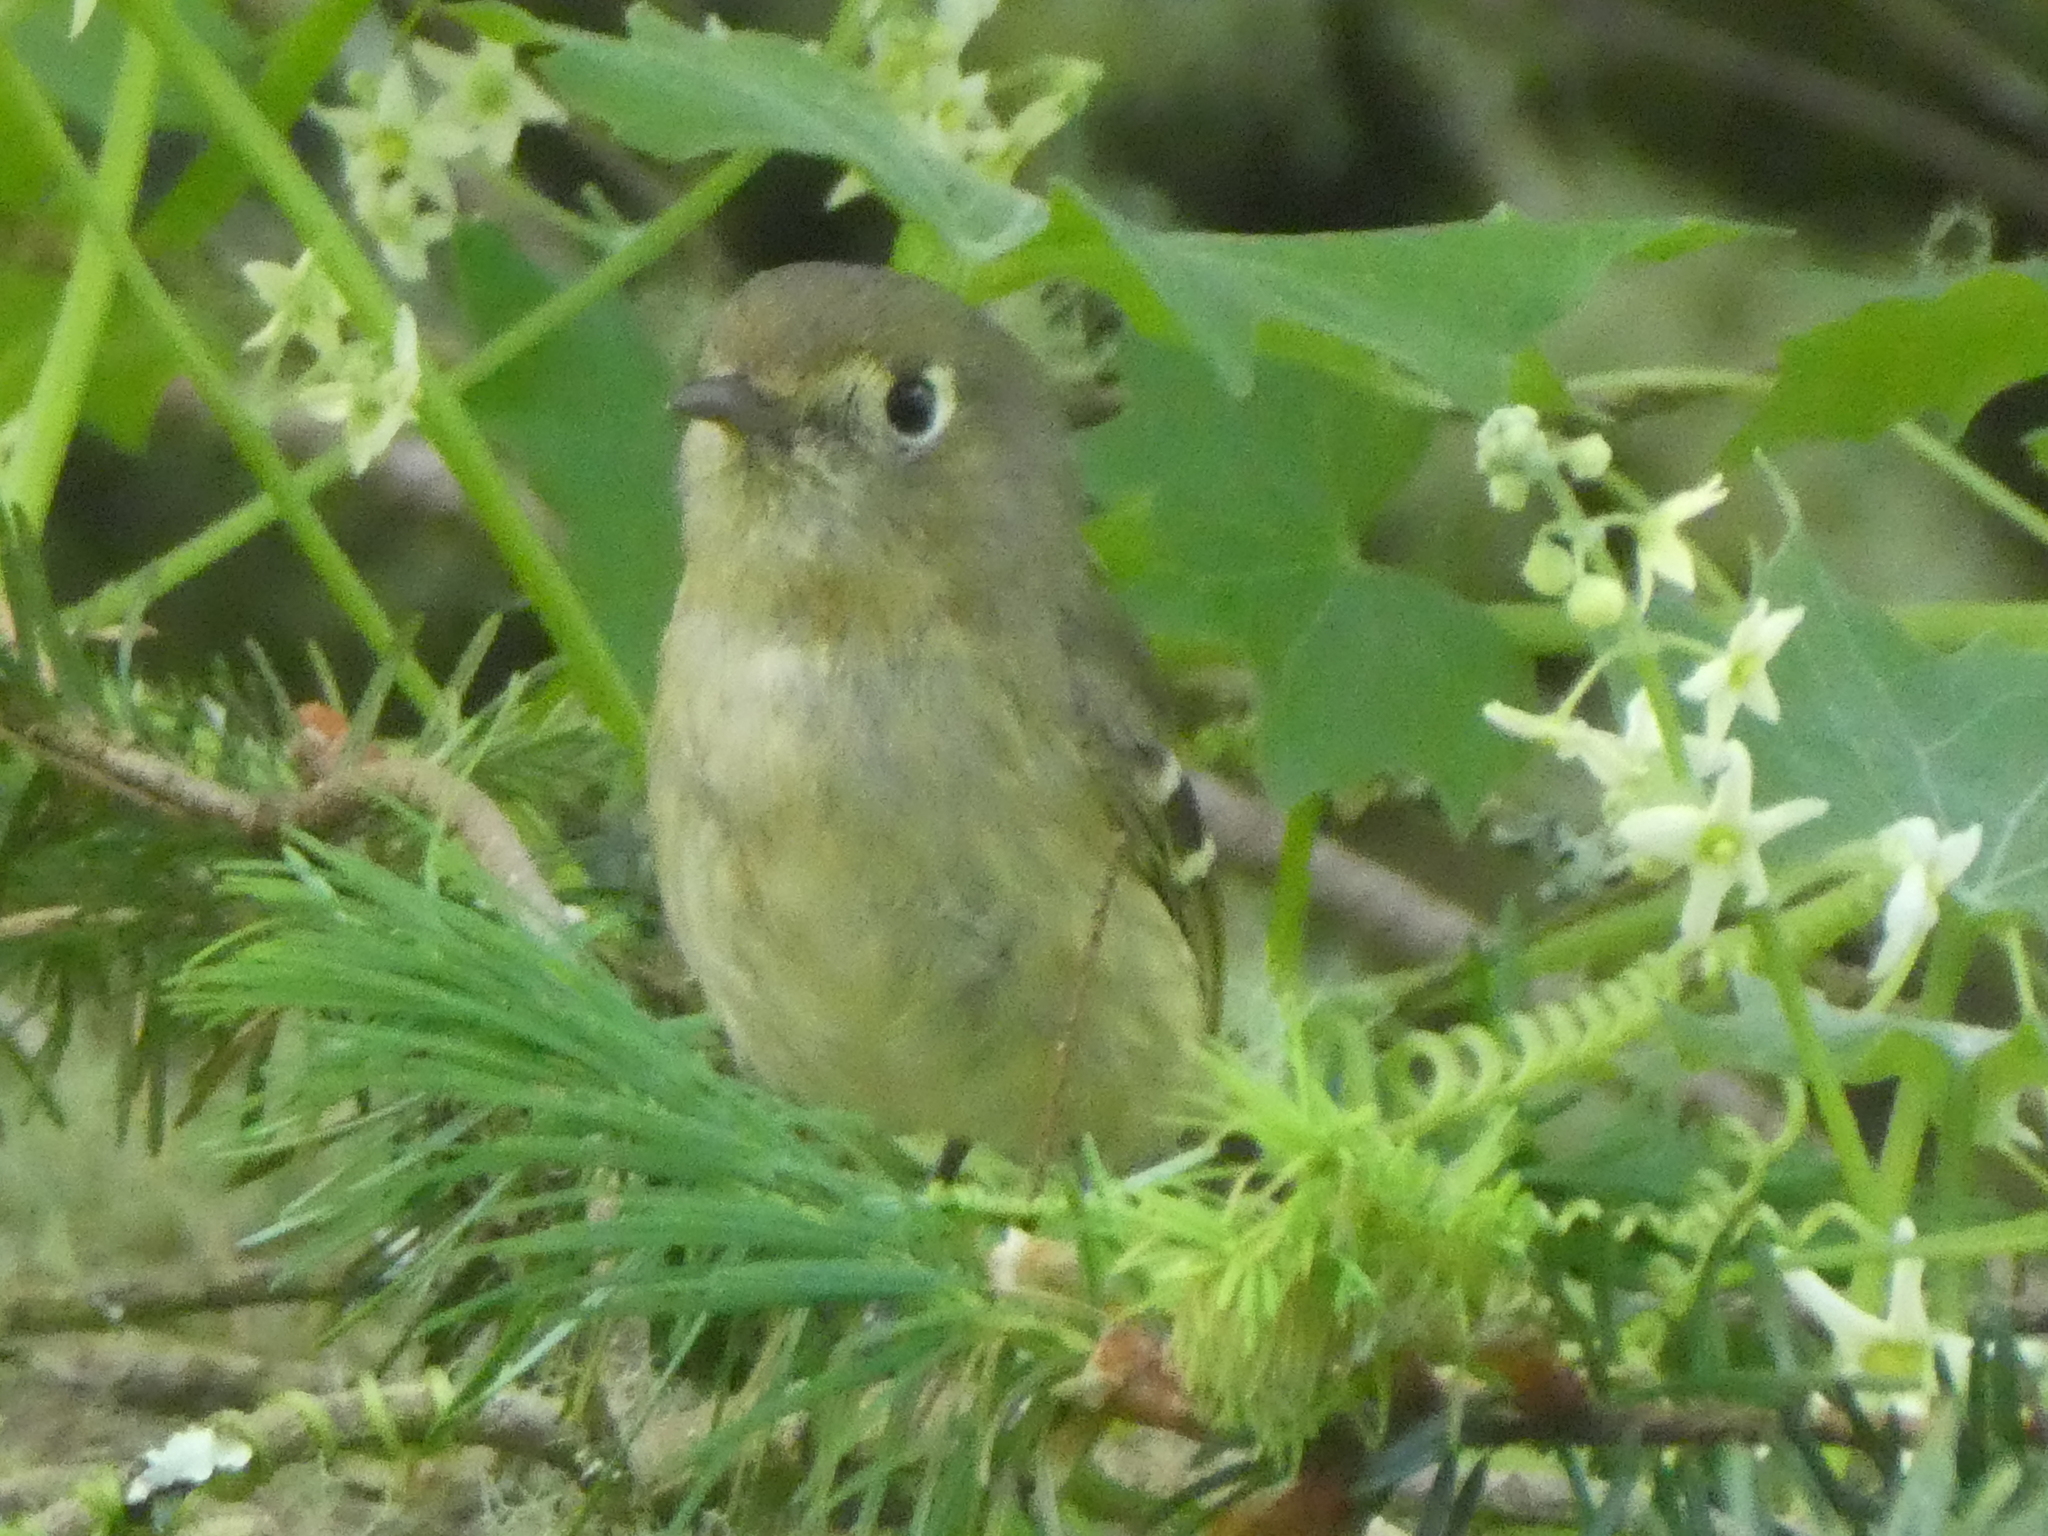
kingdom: Animalia
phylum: Chordata
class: Aves
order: Passeriformes
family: Vireonidae
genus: Vireo
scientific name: Vireo huttoni
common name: Hutton's vireo
